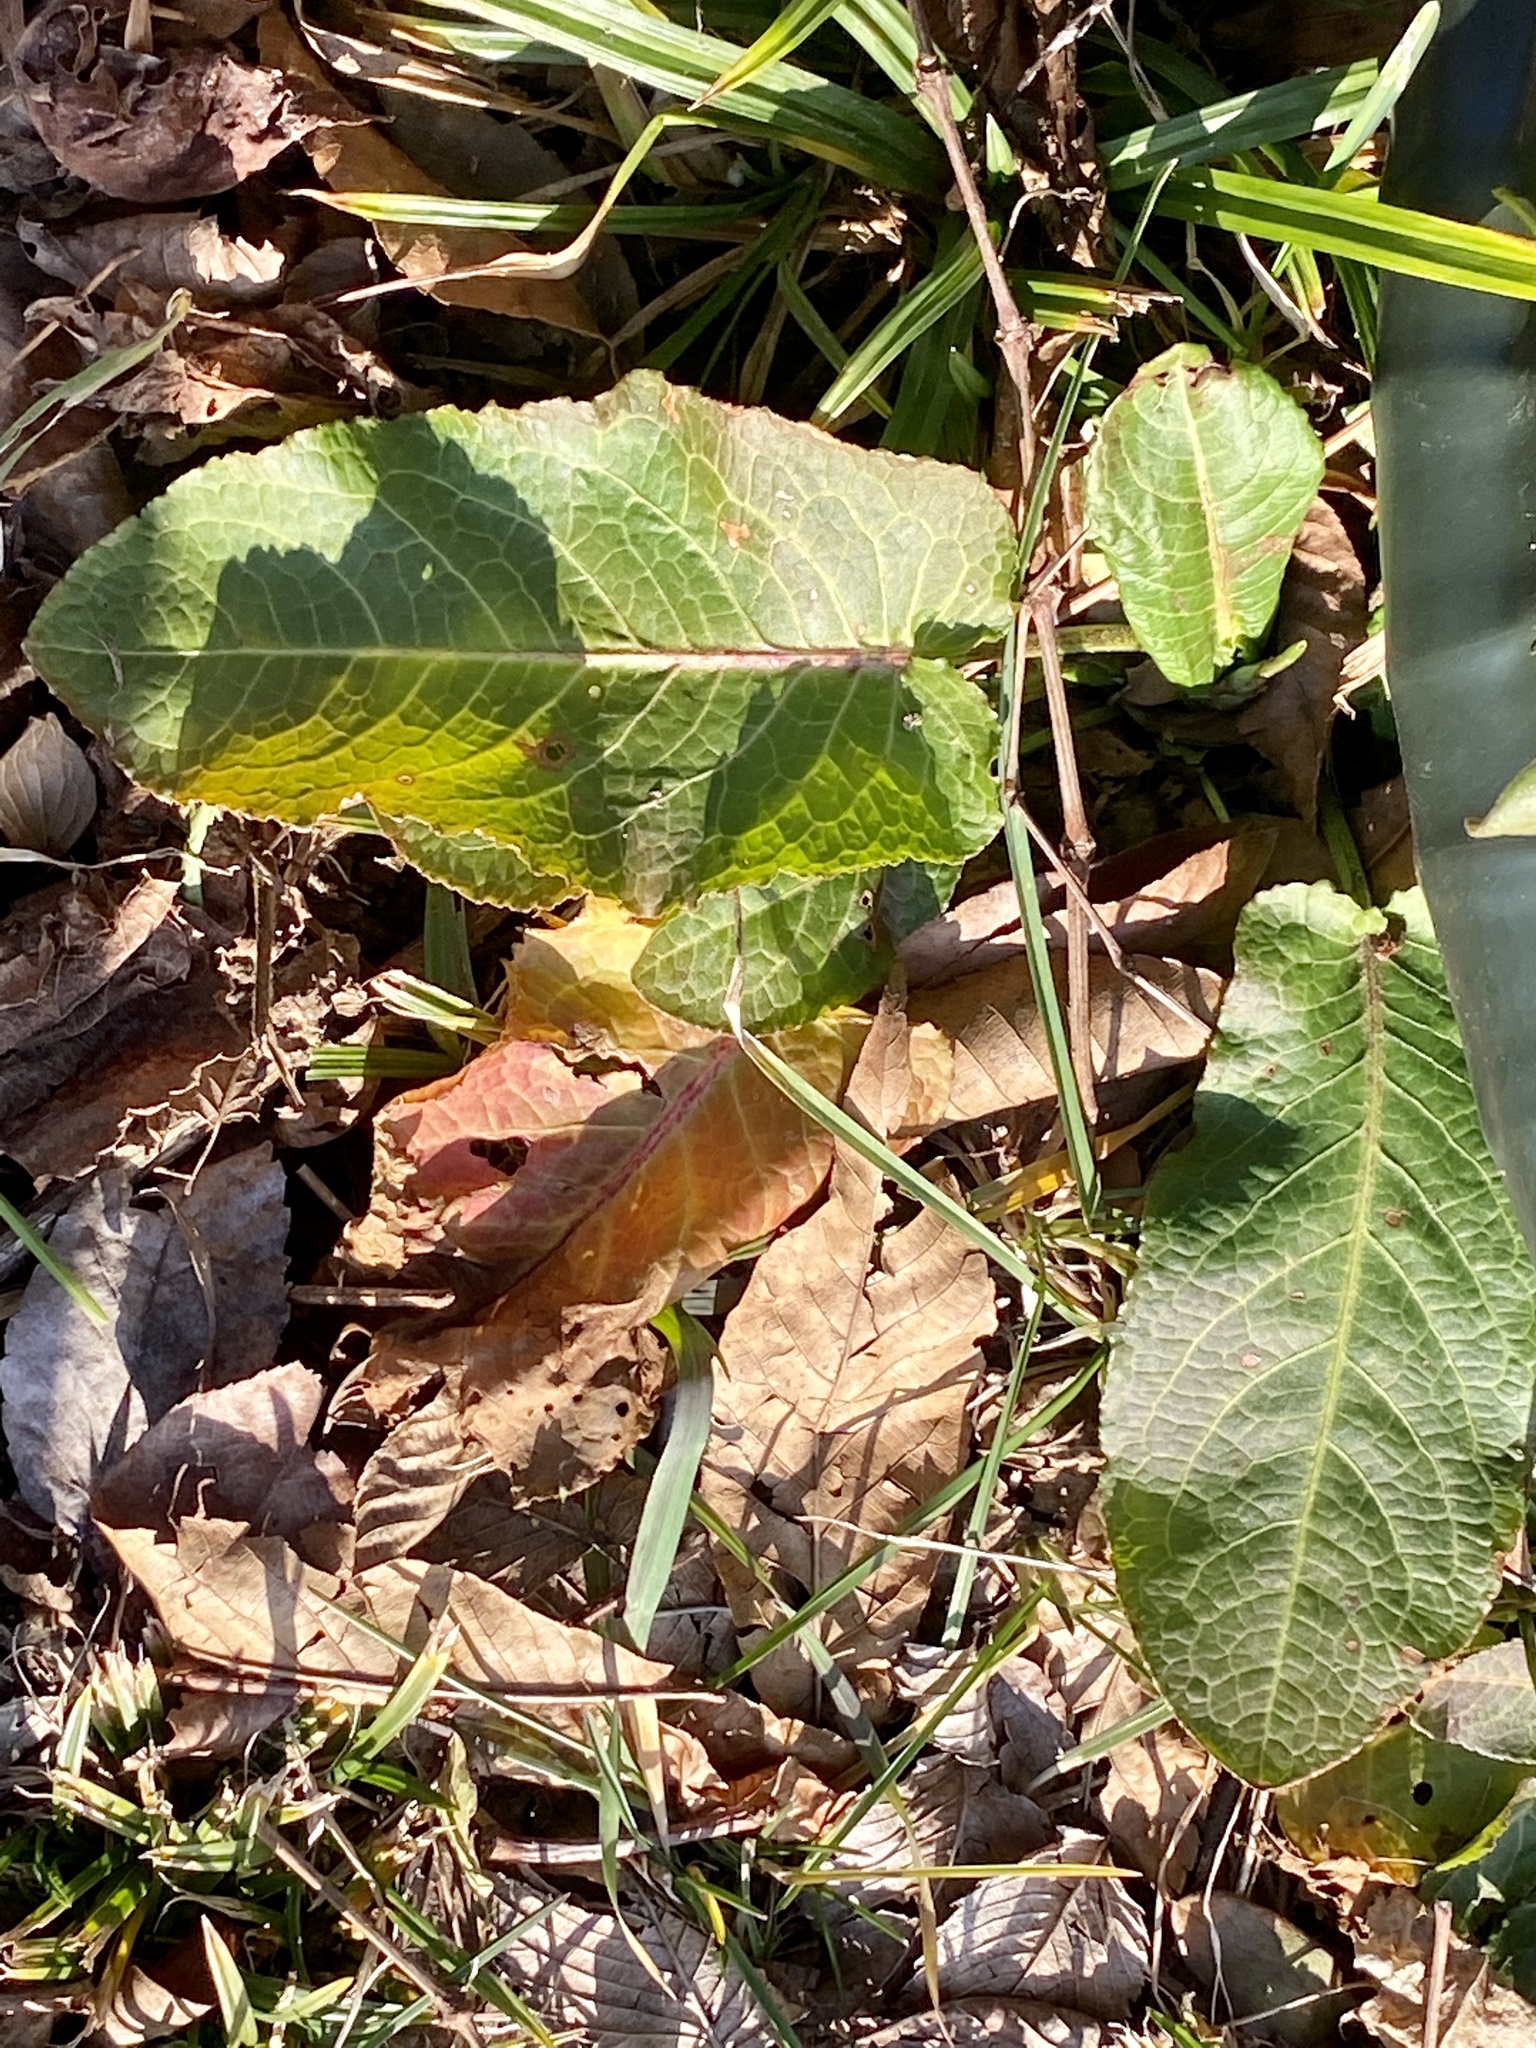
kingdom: Plantae
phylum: Tracheophyta
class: Magnoliopsida
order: Caryophyllales
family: Polygonaceae
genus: Rumex
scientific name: Rumex obtusifolius
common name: Bitter dock
